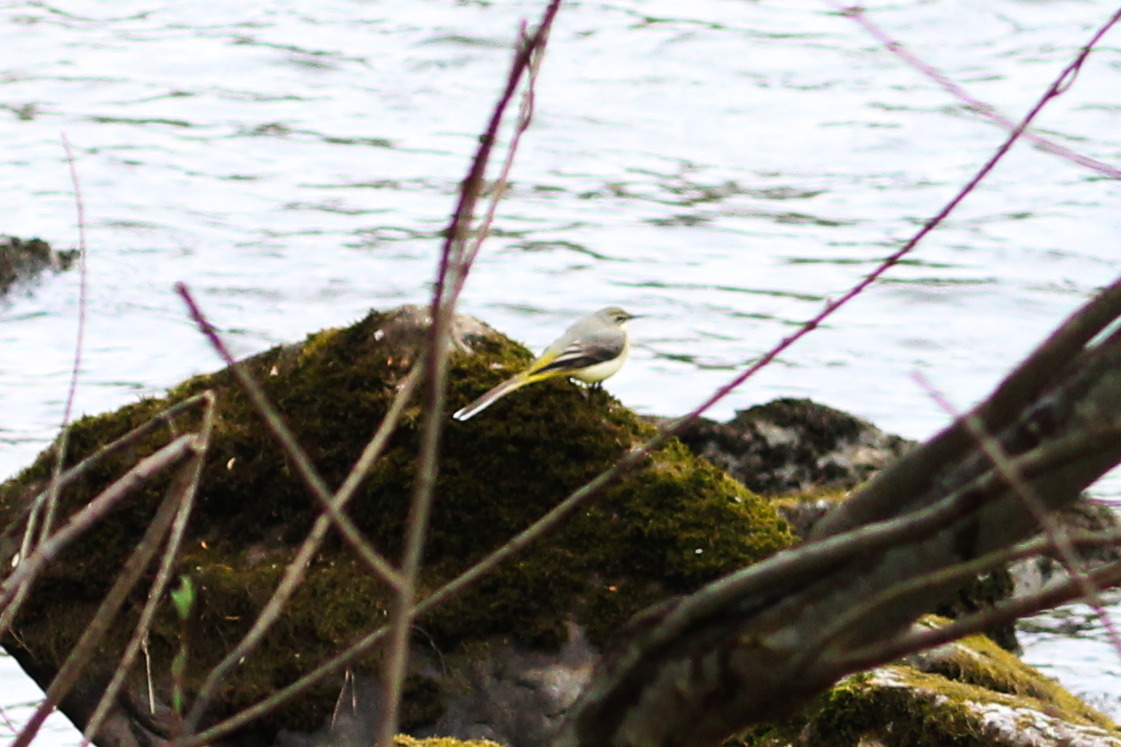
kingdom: Animalia
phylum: Chordata
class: Aves
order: Passeriformes
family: Motacillidae
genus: Motacilla
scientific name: Motacilla cinerea
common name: Grey wagtail
